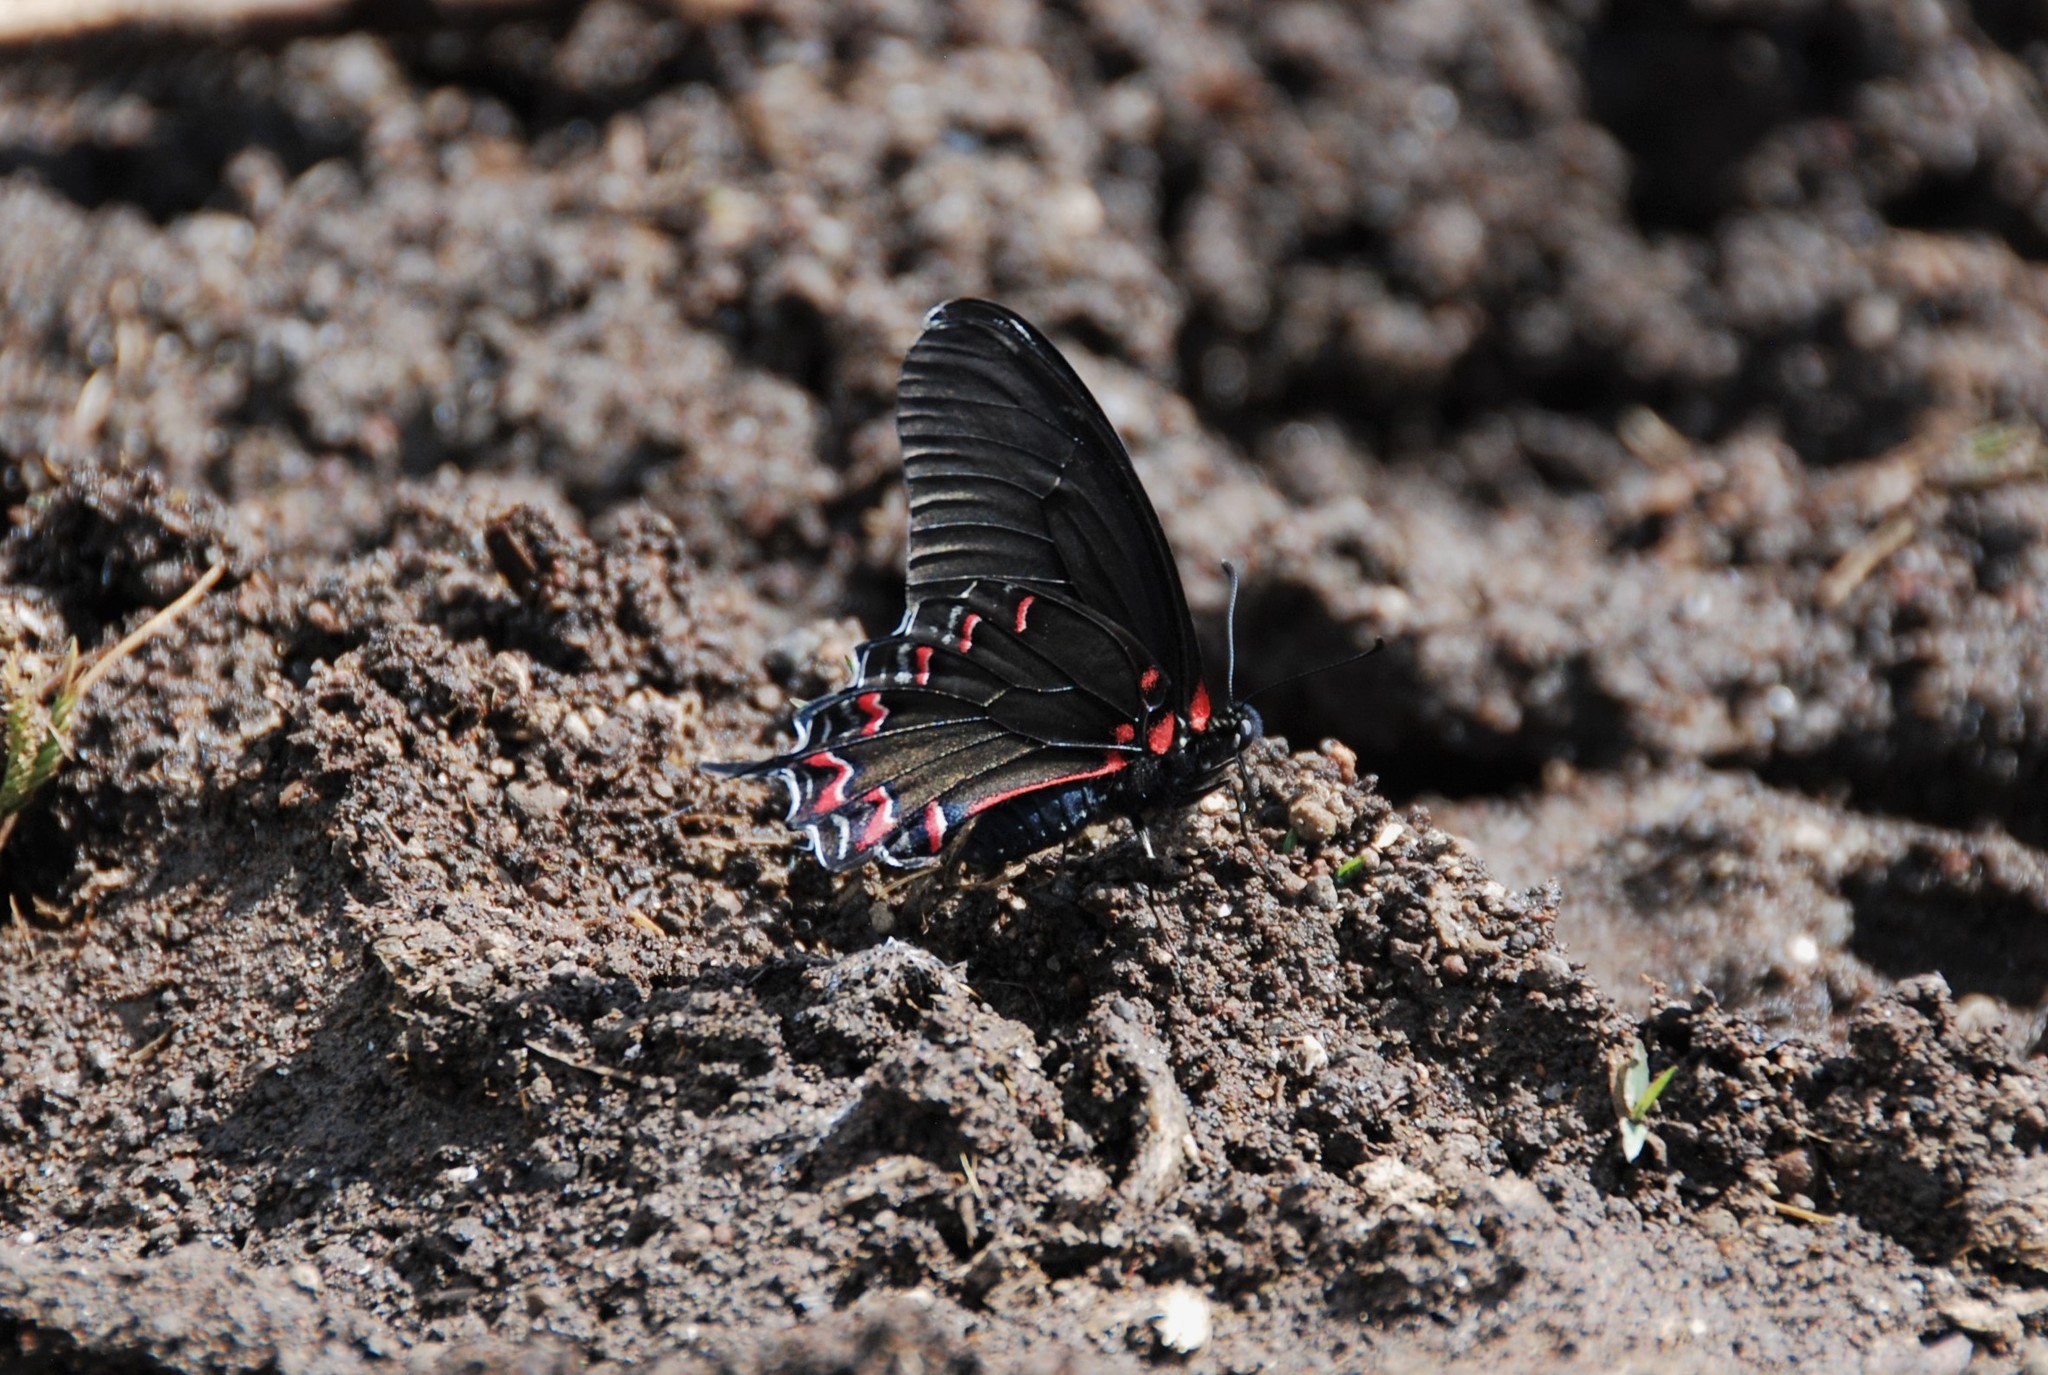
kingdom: Animalia
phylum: Arthropoda
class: Insecta
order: Lepidoptera
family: Papilionidae
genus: Mimoides
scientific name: Mimoides thymbraeus
